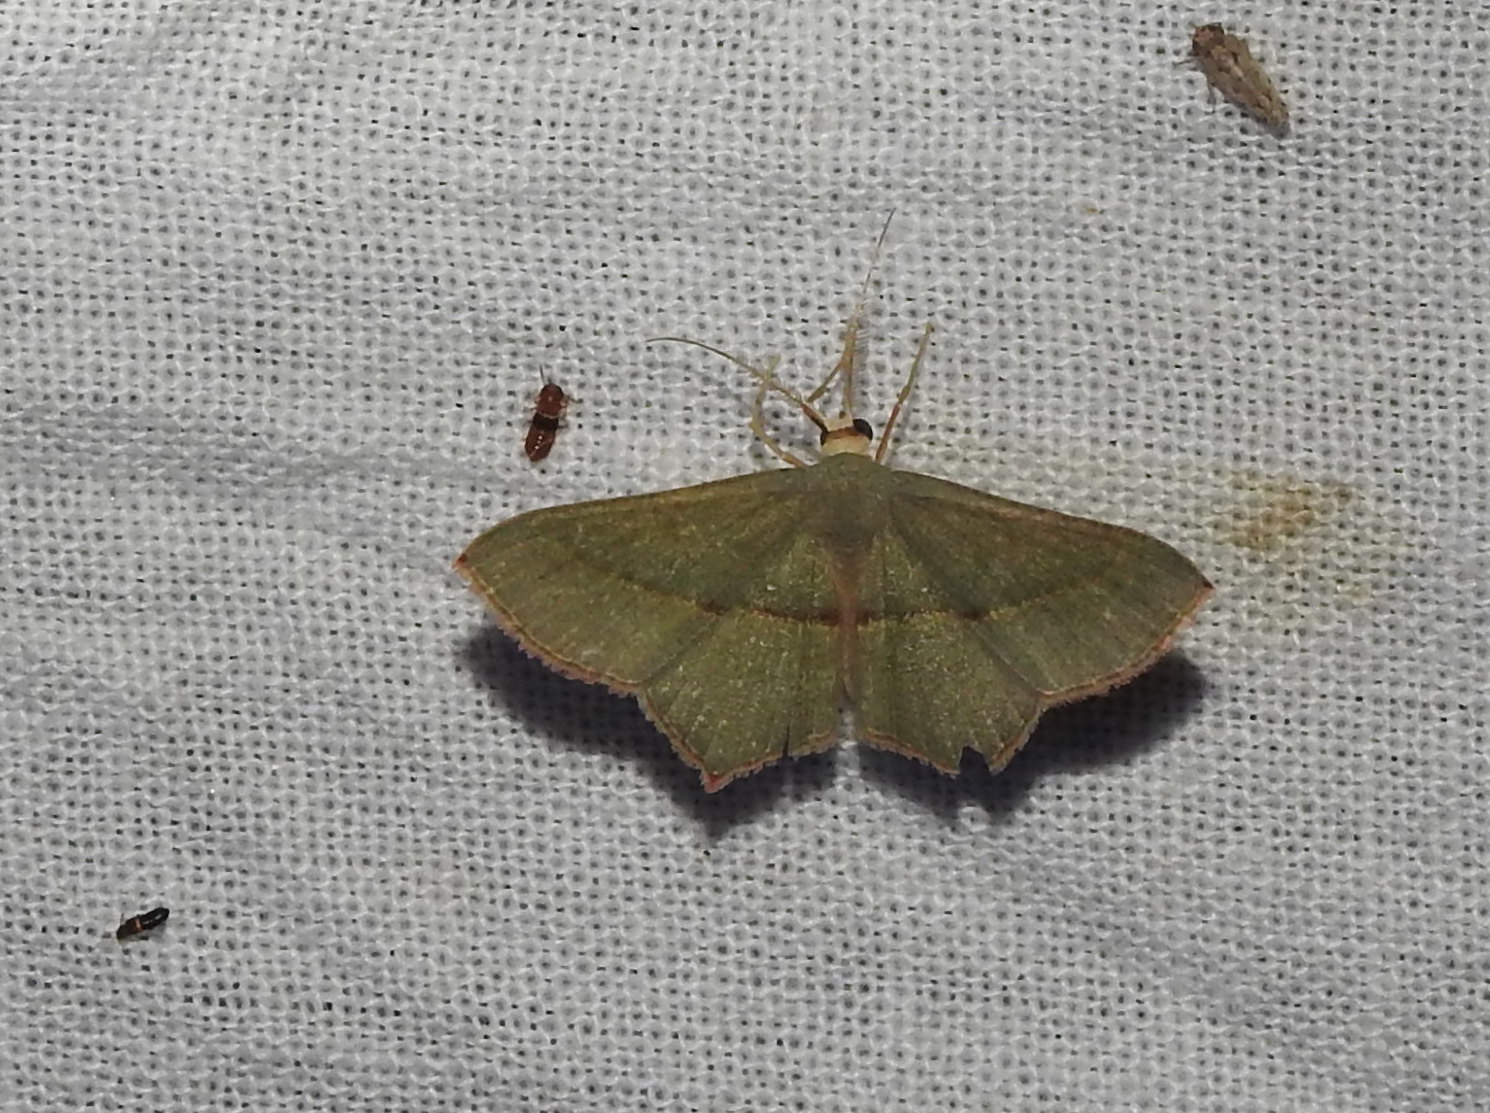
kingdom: Animalia
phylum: Arthropoda
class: Insecta
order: Lepidoptera
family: Geometridae
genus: Traminda
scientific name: Traminda mundissima
